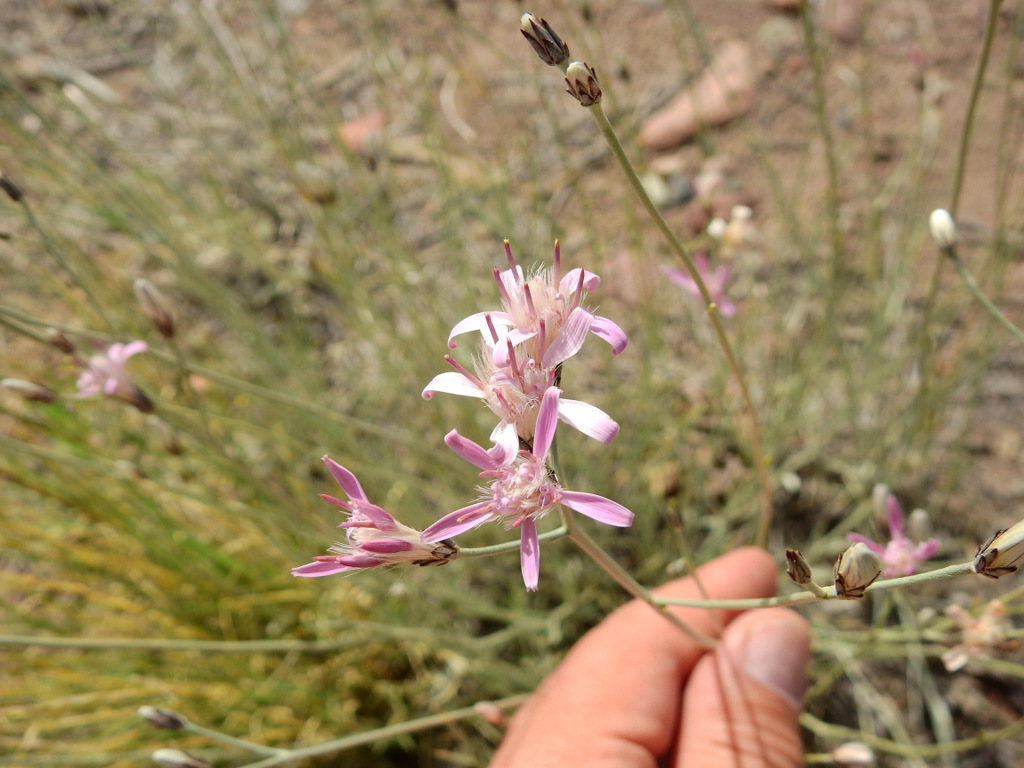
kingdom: Plantae
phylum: Tracheophyta
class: Magnoliopsida
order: Asterales
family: Asteraceae
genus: Hyalis
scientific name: Hyalis argentea
